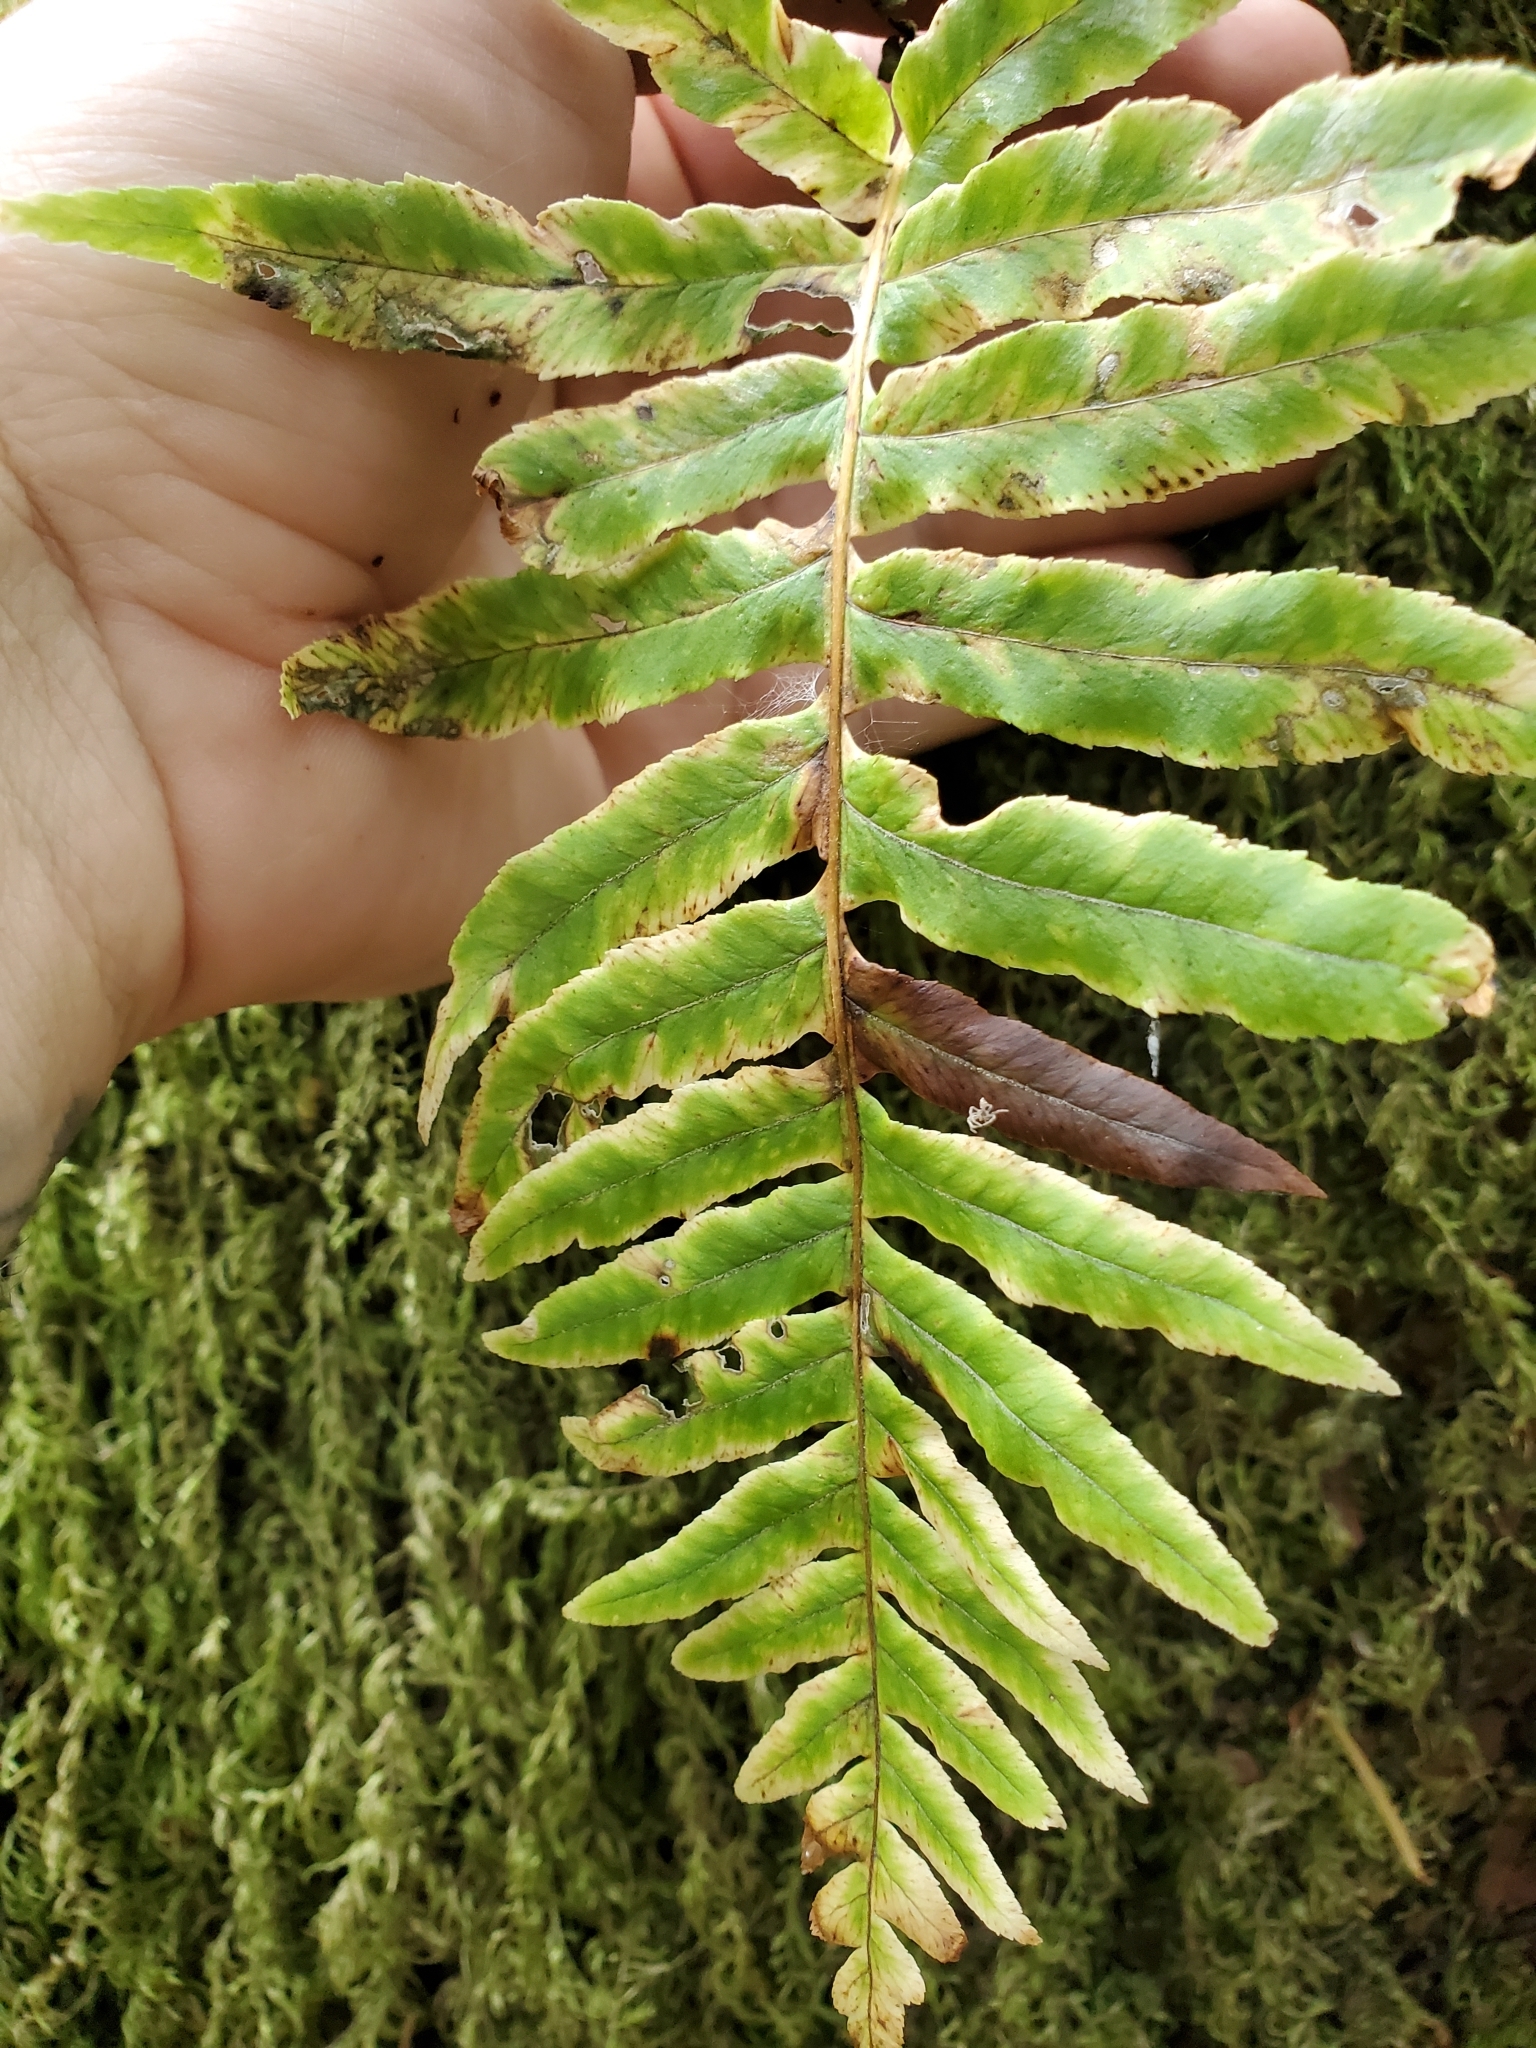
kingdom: Plantae
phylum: Tracheophyta
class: Polypodiopsida
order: Polypodiales
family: Polypodiaceae
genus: Polypodium
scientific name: Polypodium glycyrrhiza
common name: Licorice fern
